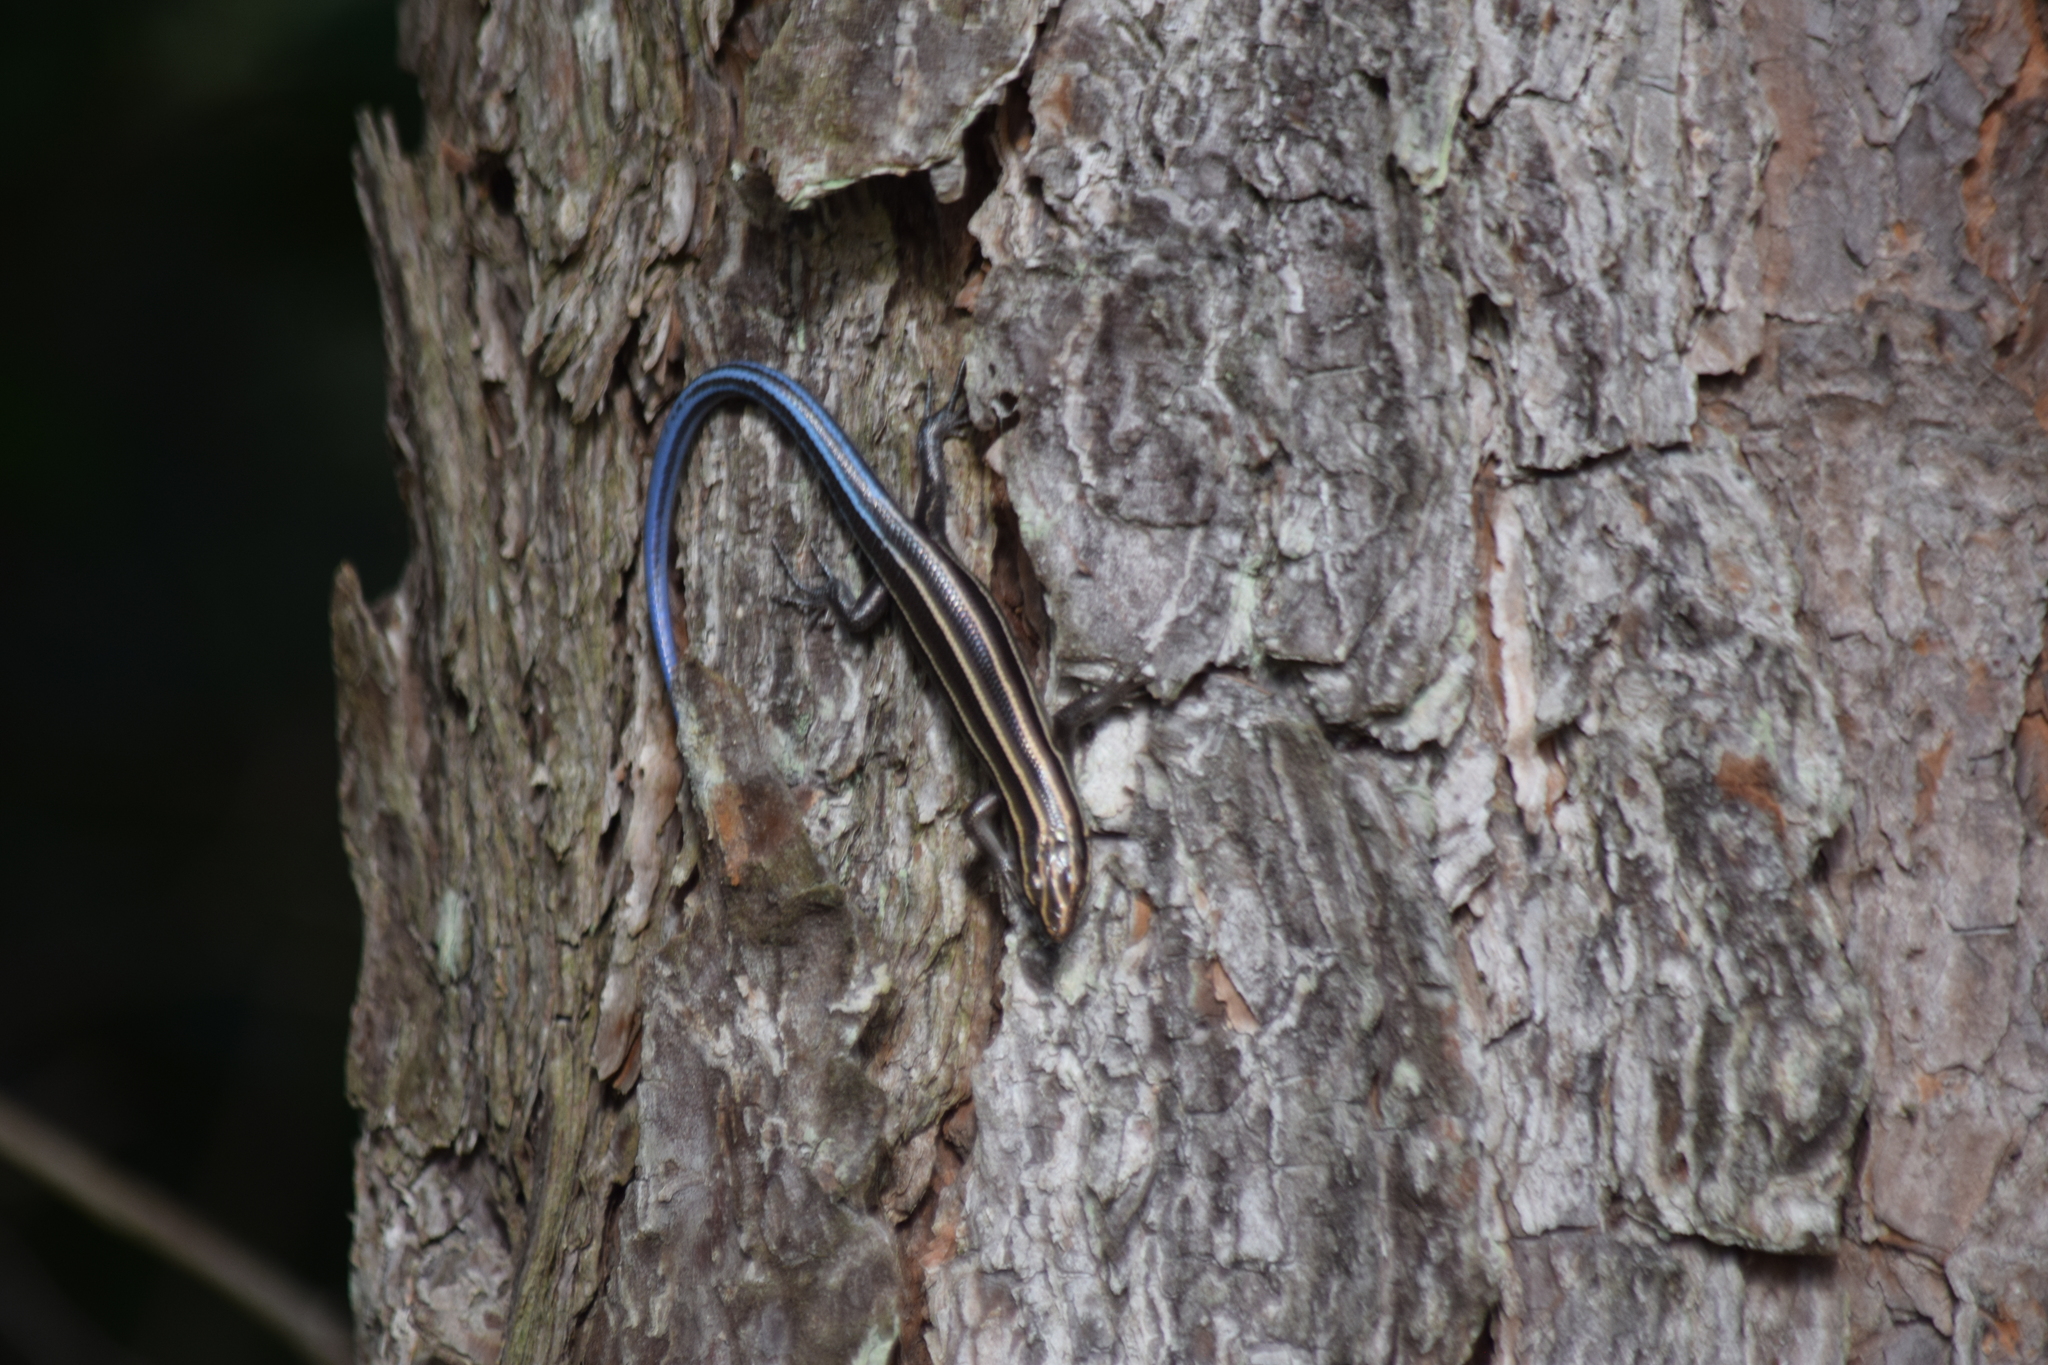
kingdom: Animalia
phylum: Chordata
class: Squamata
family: Scincidae
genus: Plestiodon
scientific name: Plestiodon fasciatus
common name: Five-lined skink
